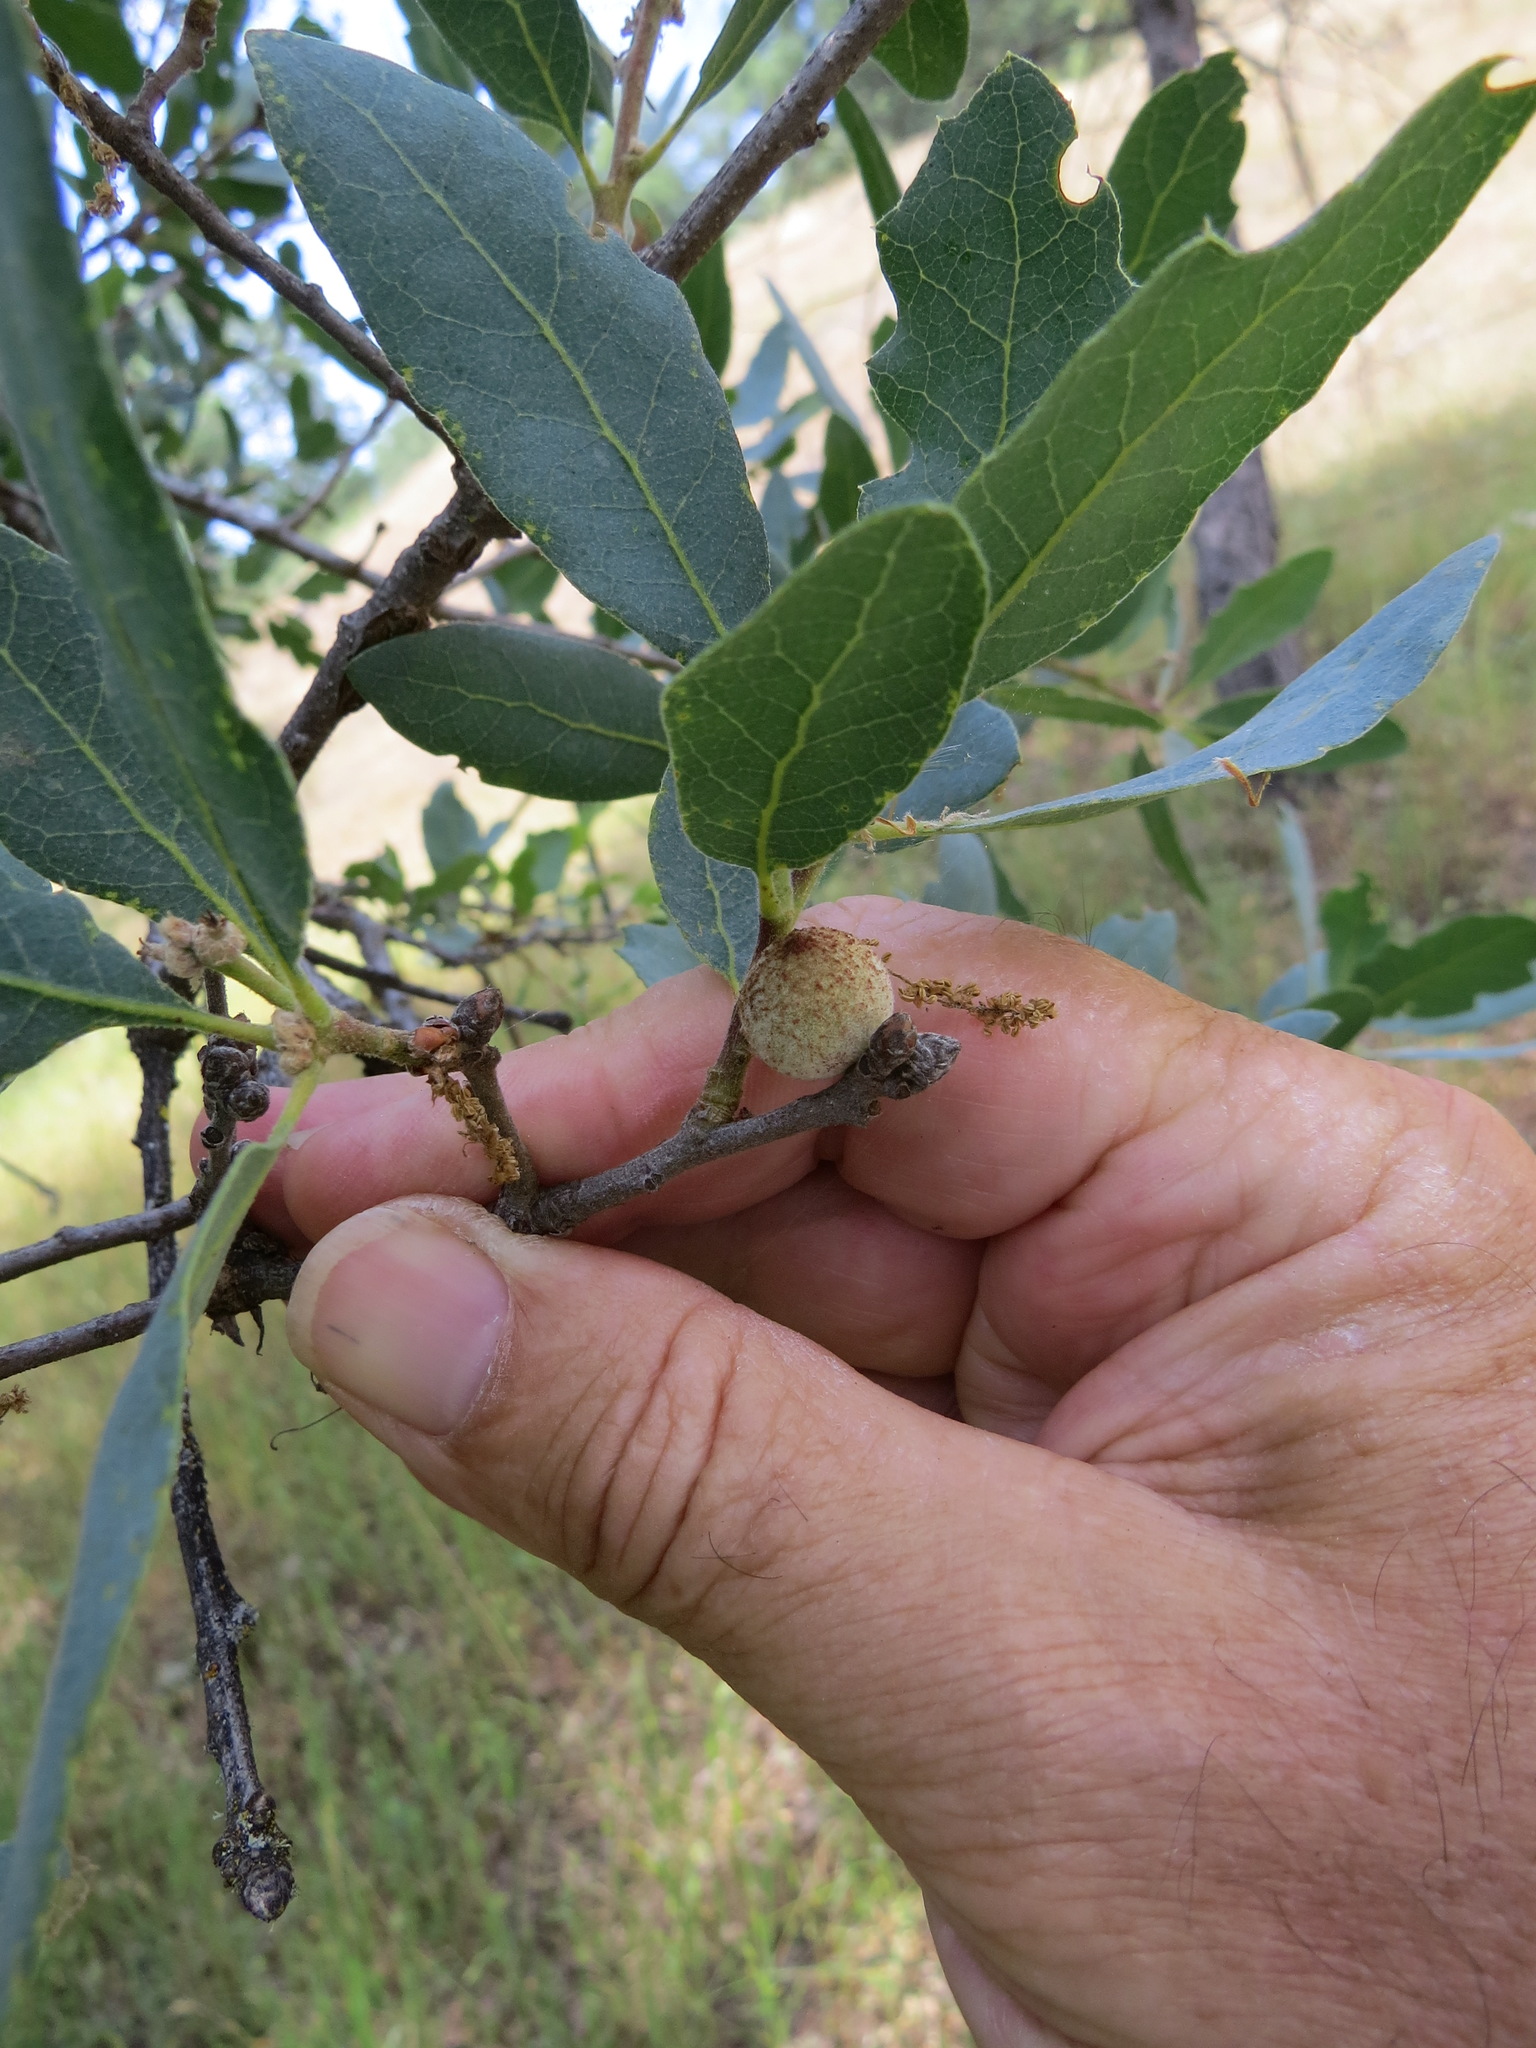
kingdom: Animalia
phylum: Arthropoda
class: Insecta
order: Hymenoptera
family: Cynipidae
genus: Burnettweldia
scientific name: Burnettweldia
